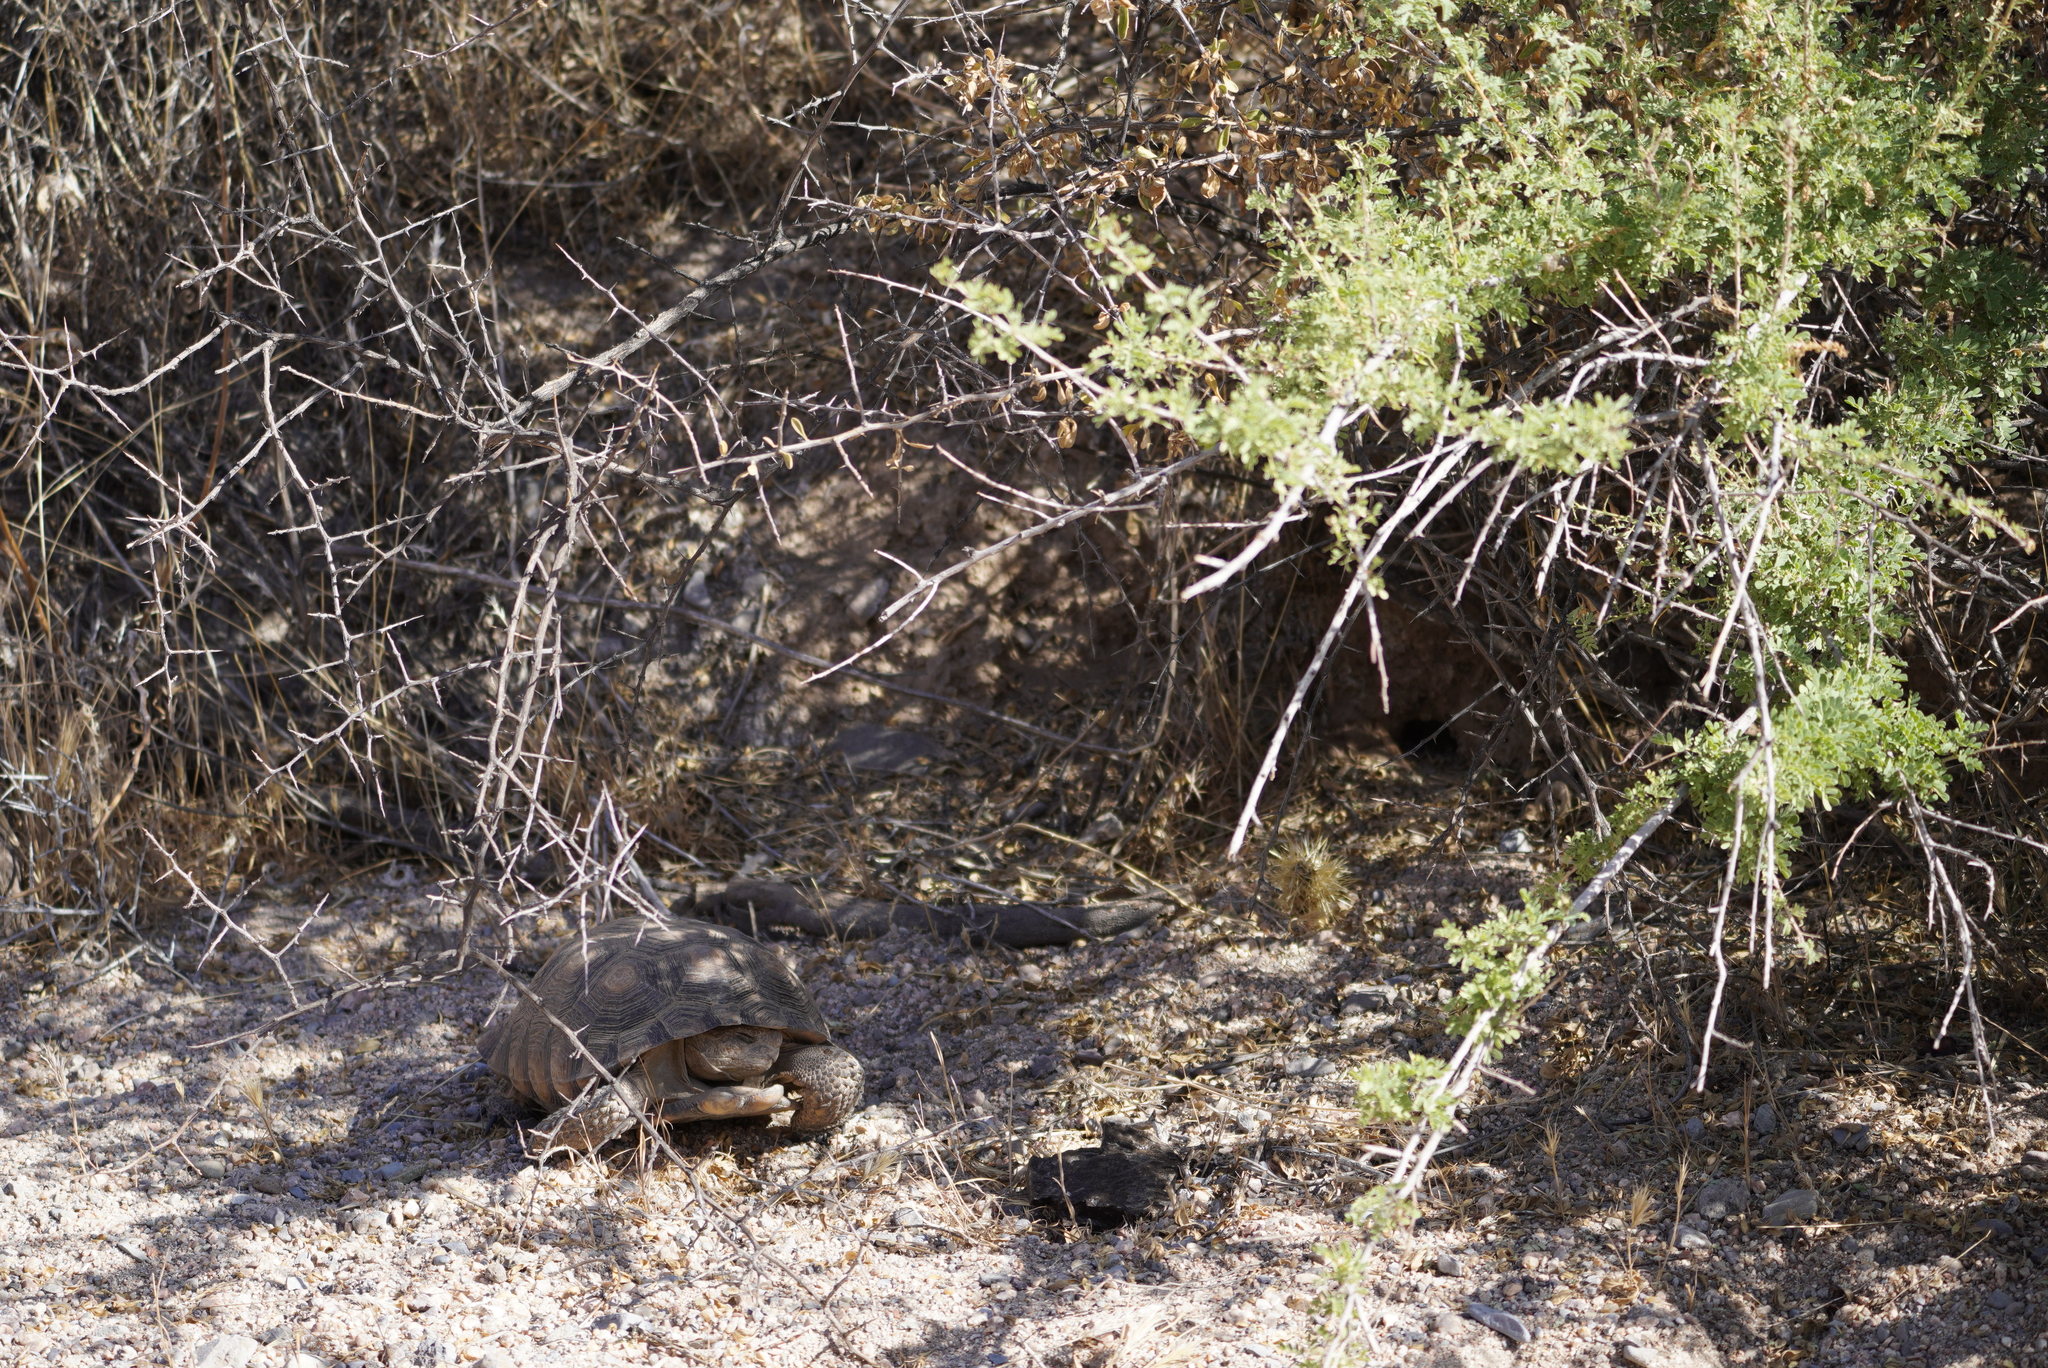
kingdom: Animalia
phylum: Chordata
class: Testudines
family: Testudinidae
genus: Gopherus
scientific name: Gopherus morafkai
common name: Sonoran desert tortoise
